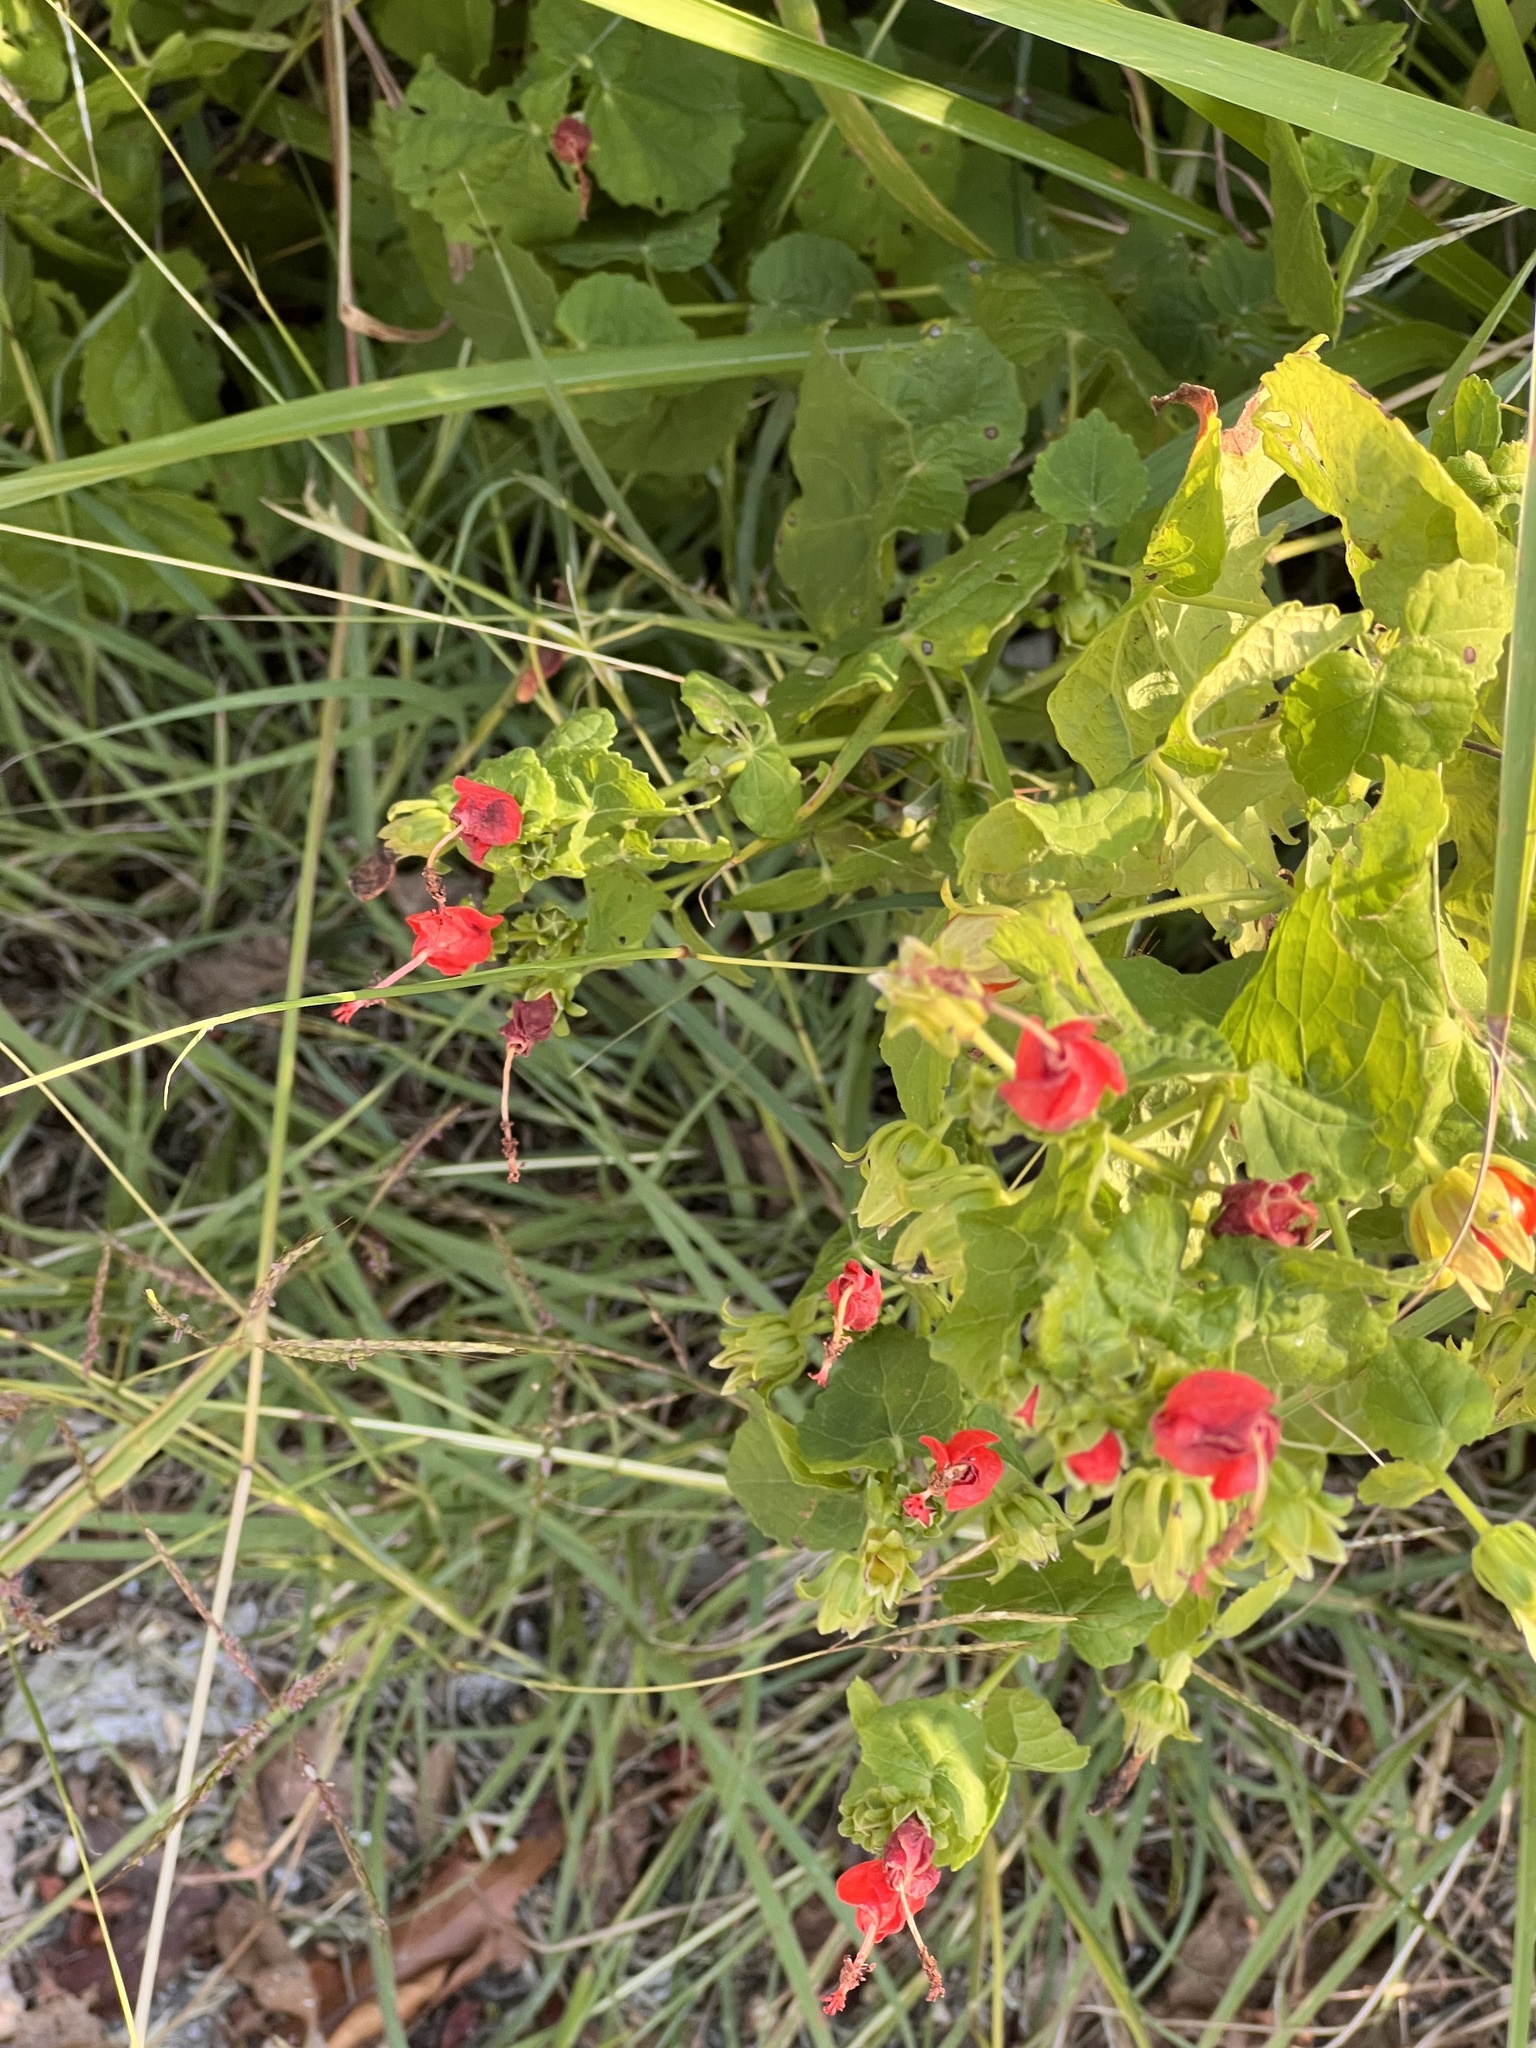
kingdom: Plantae
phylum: Tracheophyta
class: Magnoliopsida
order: Malvales
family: Malvaceae
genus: Malvaviscus
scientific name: Malvaviscus arboreus
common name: Wax mallow
